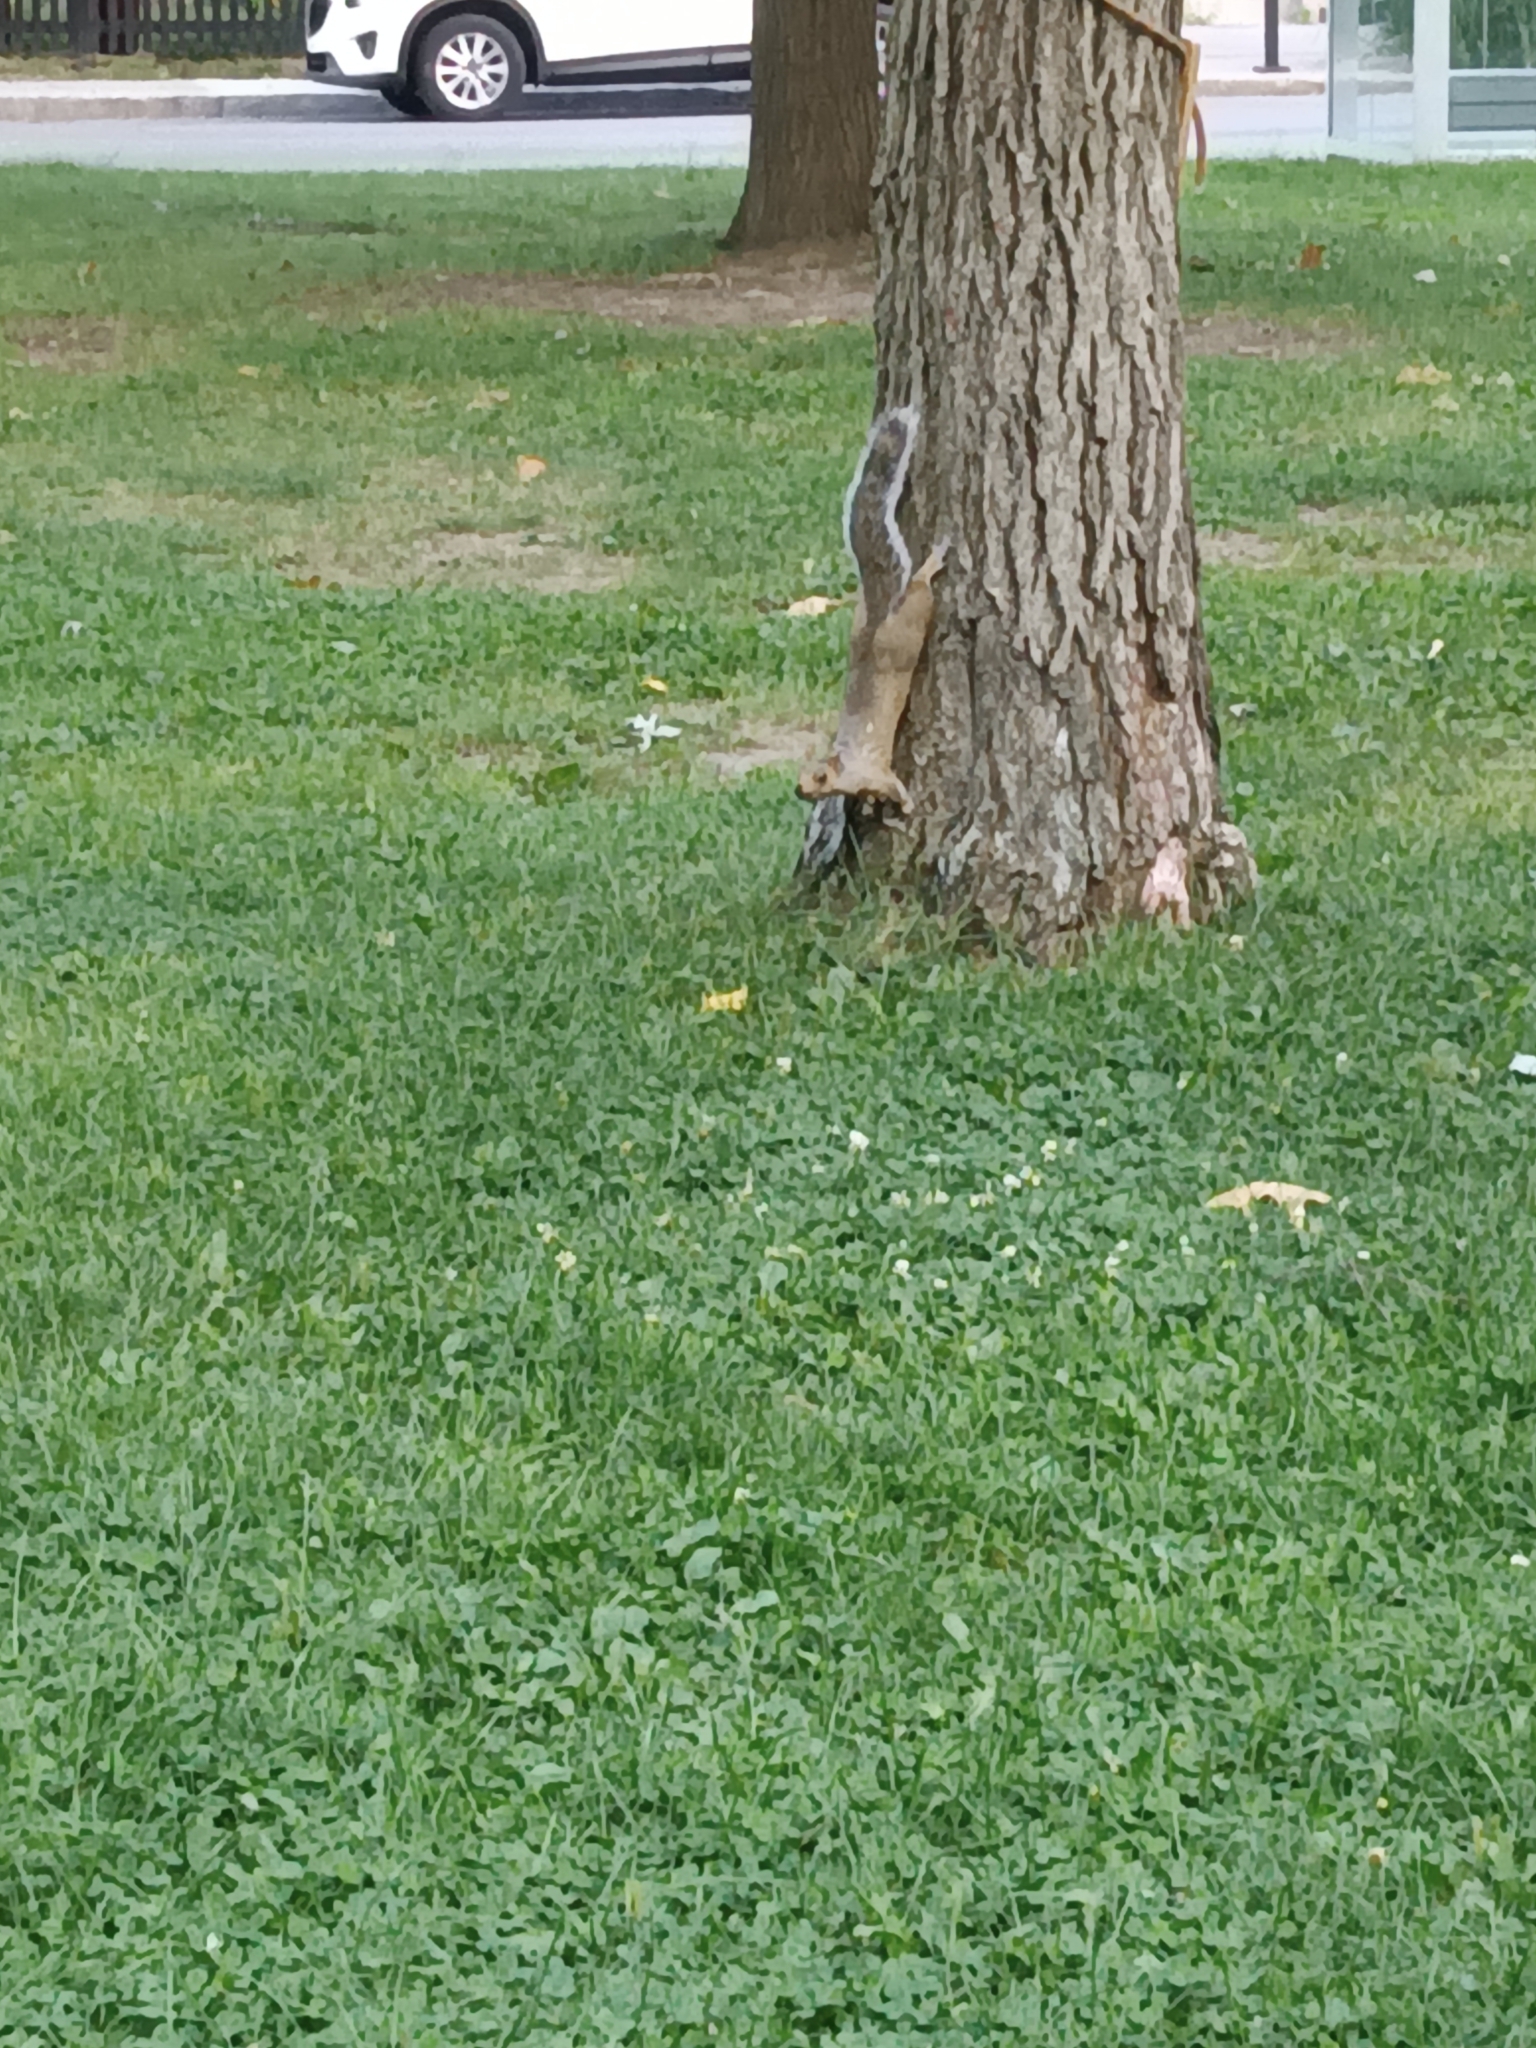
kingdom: Animalia
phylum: Chordata
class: Mammalia
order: Rodentia
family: Sciuridae
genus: Sciurus
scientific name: Sciurus carolinensis
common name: Eastern gray squirrel
